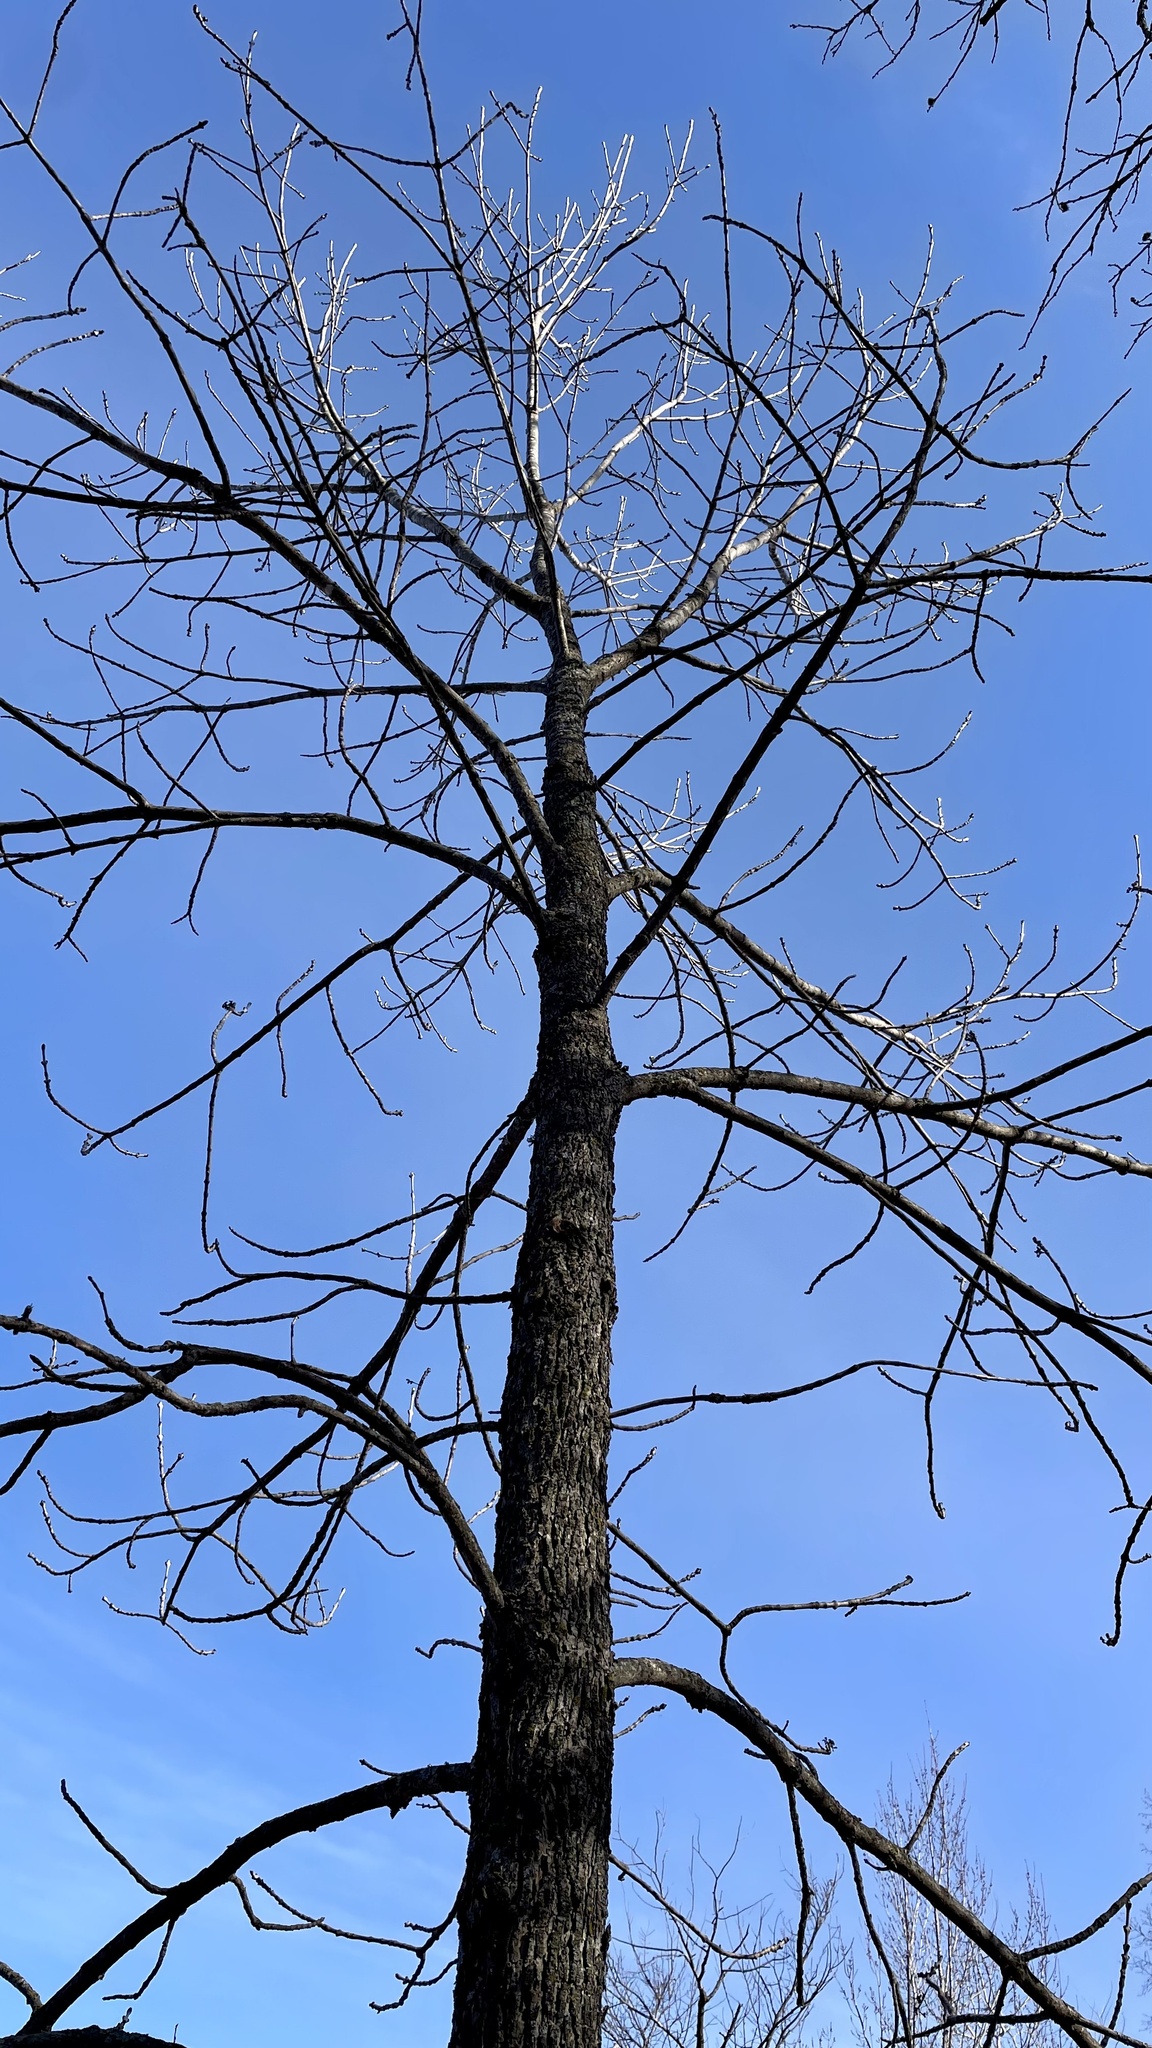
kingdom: Plantae
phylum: Tracheophyta
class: Magnoliopsida
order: Lamiales
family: Oleaceae
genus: Fraxinus
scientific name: Fraxinus nigra
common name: Black ash
